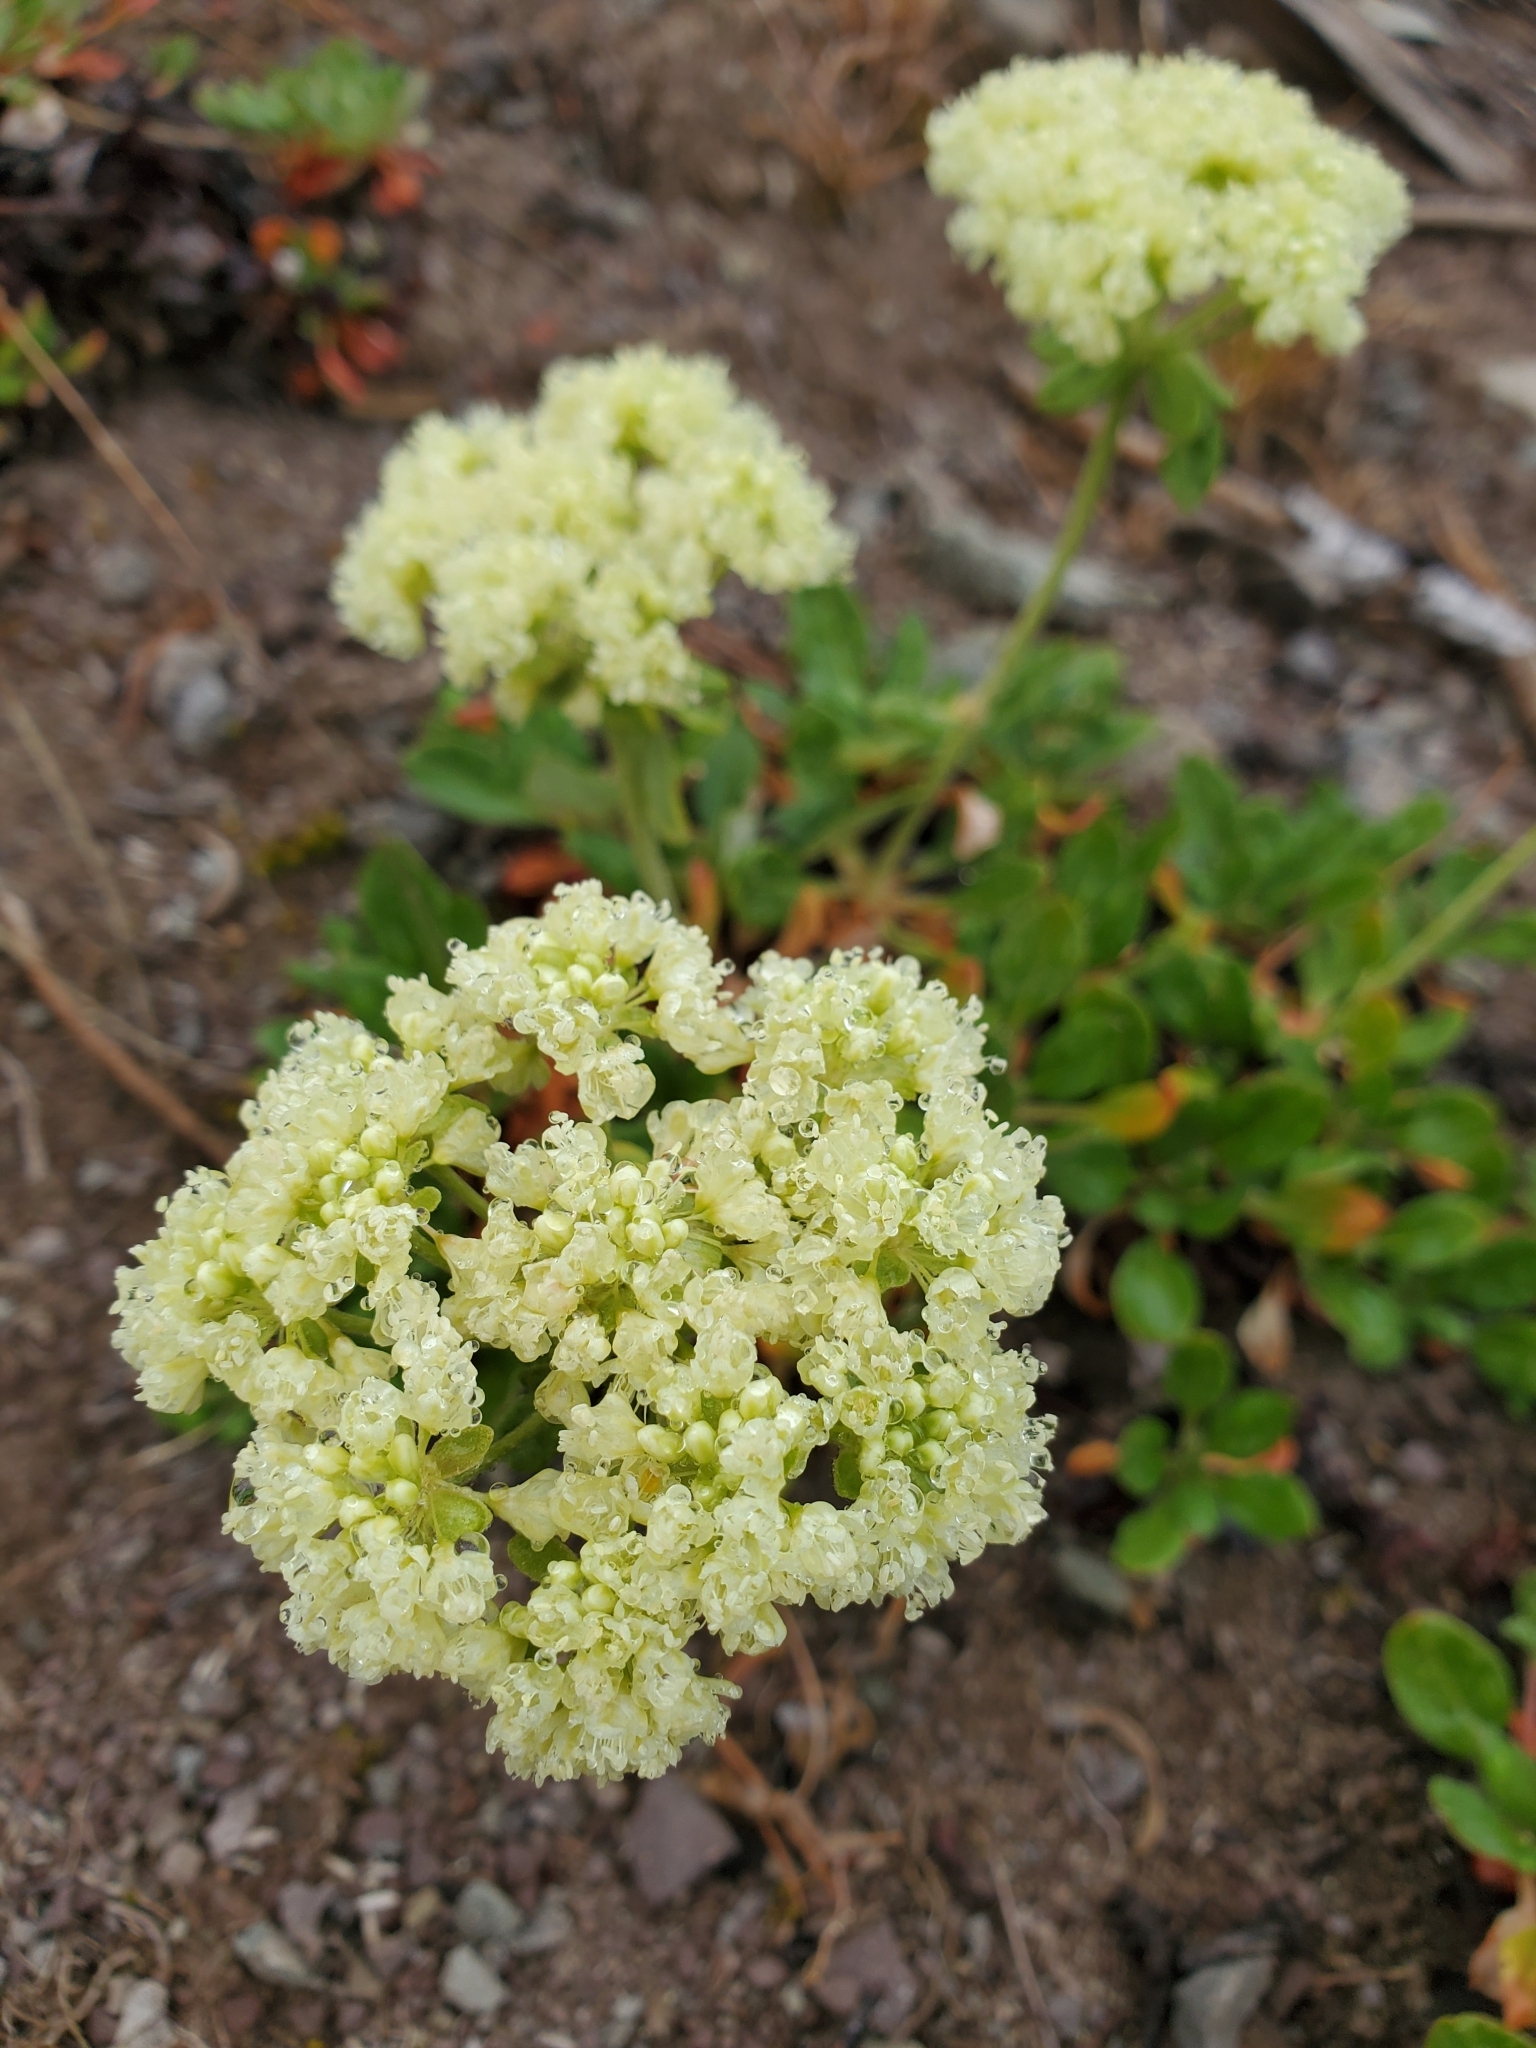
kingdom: Plantae
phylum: Tracheophyta
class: Magnoliopsida
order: Caryophyllales
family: Polygonaceae
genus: Eriogonum
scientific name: Eriogonum umbellatum
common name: Sulfur-buckwheat
